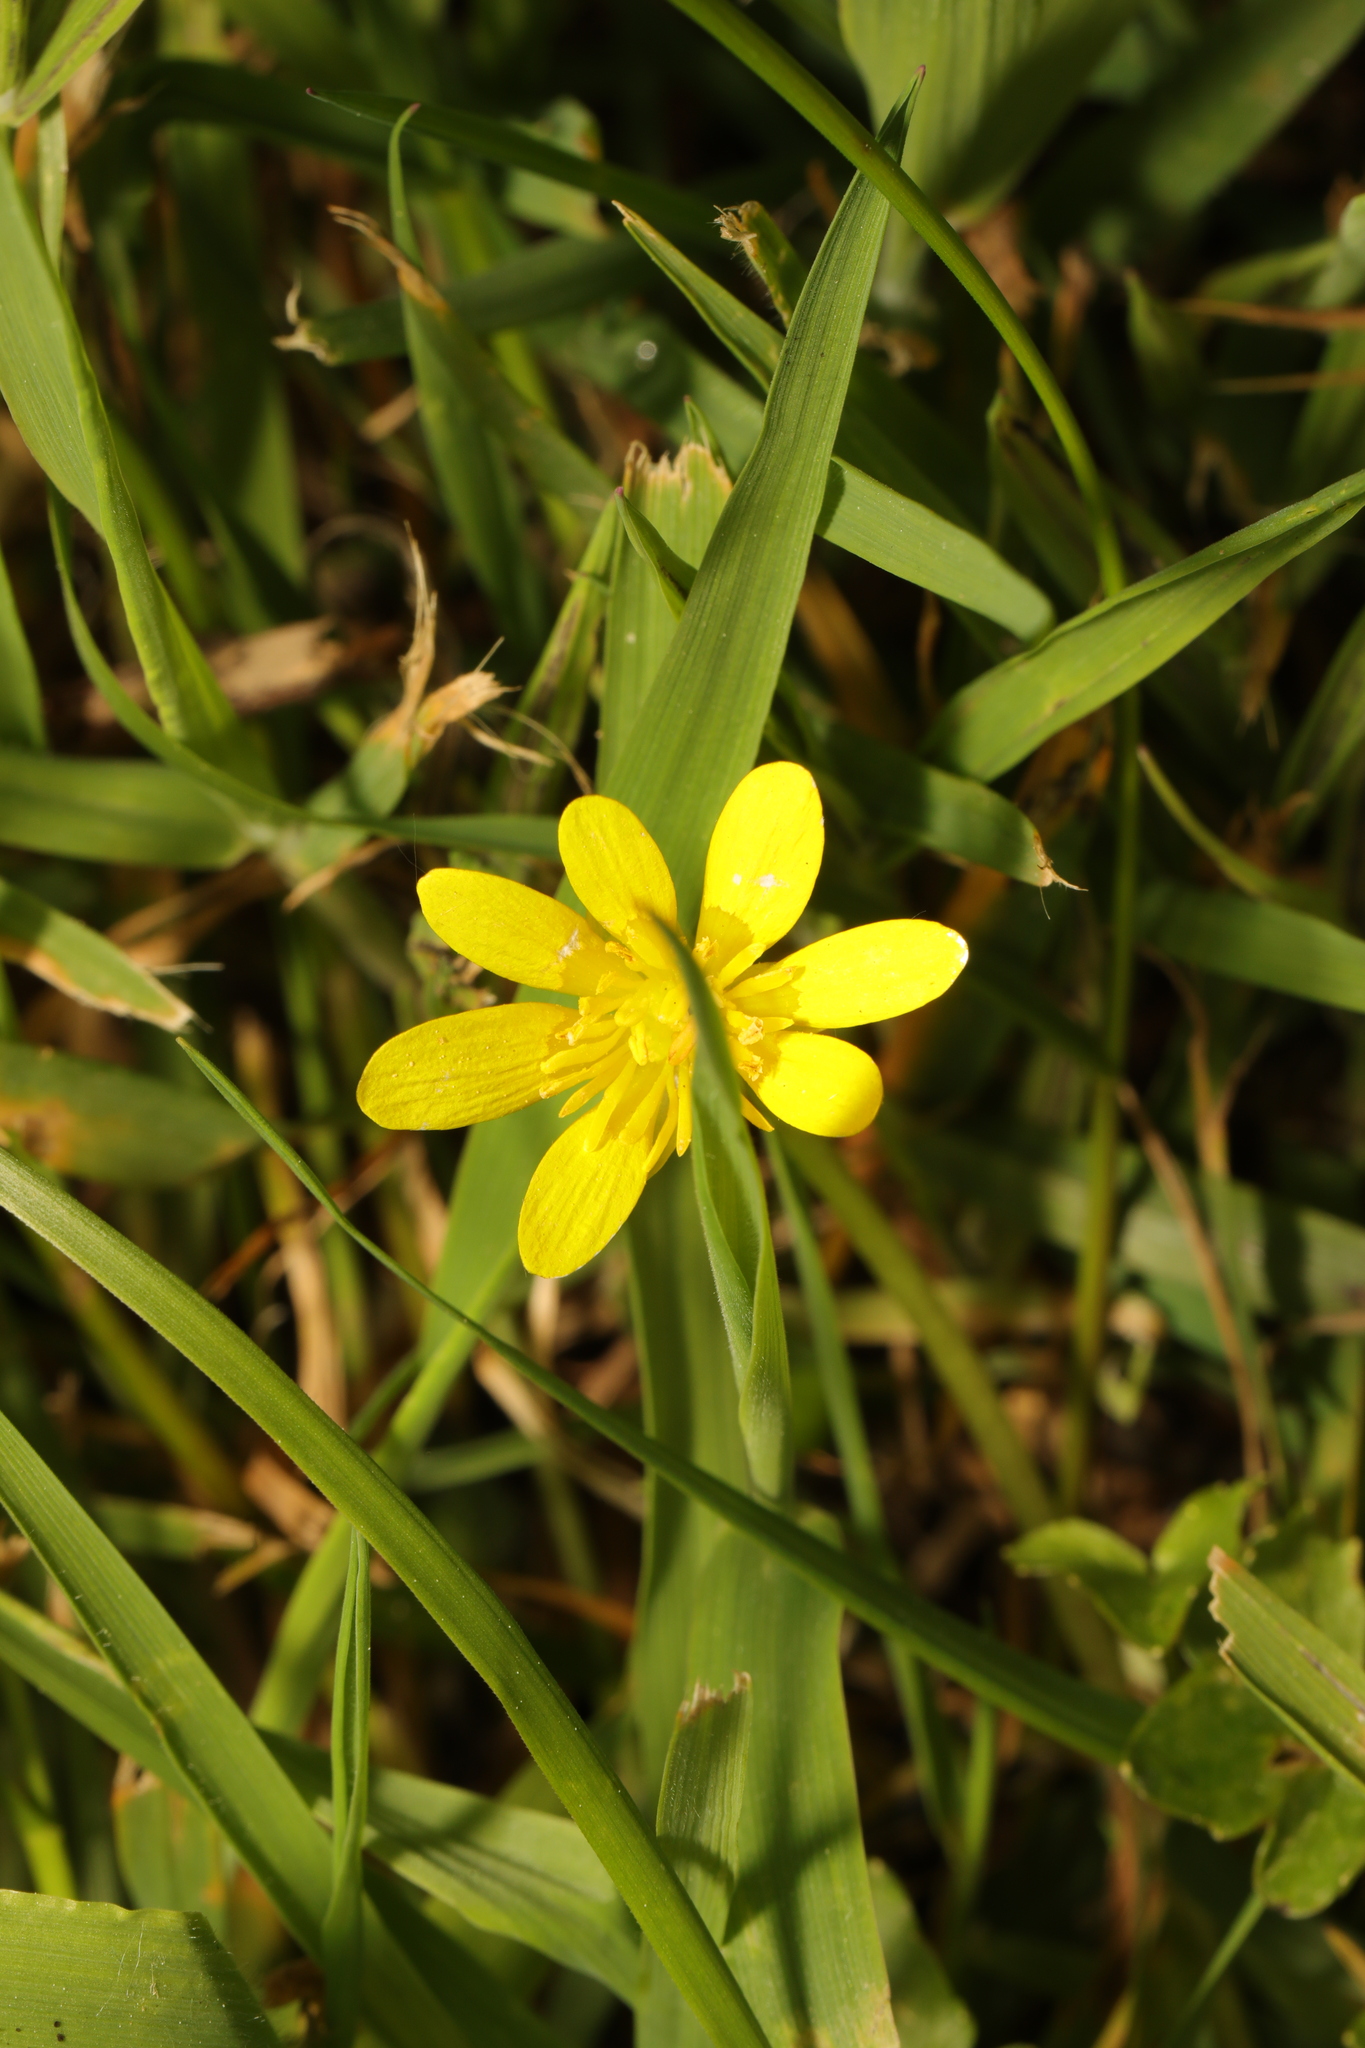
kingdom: Plantae
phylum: Tracheophyta
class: Magnoliopsida
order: Ranunculales
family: Ranunculaceae
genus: Ficaria
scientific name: Ficaria verna
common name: Lesser celandine
